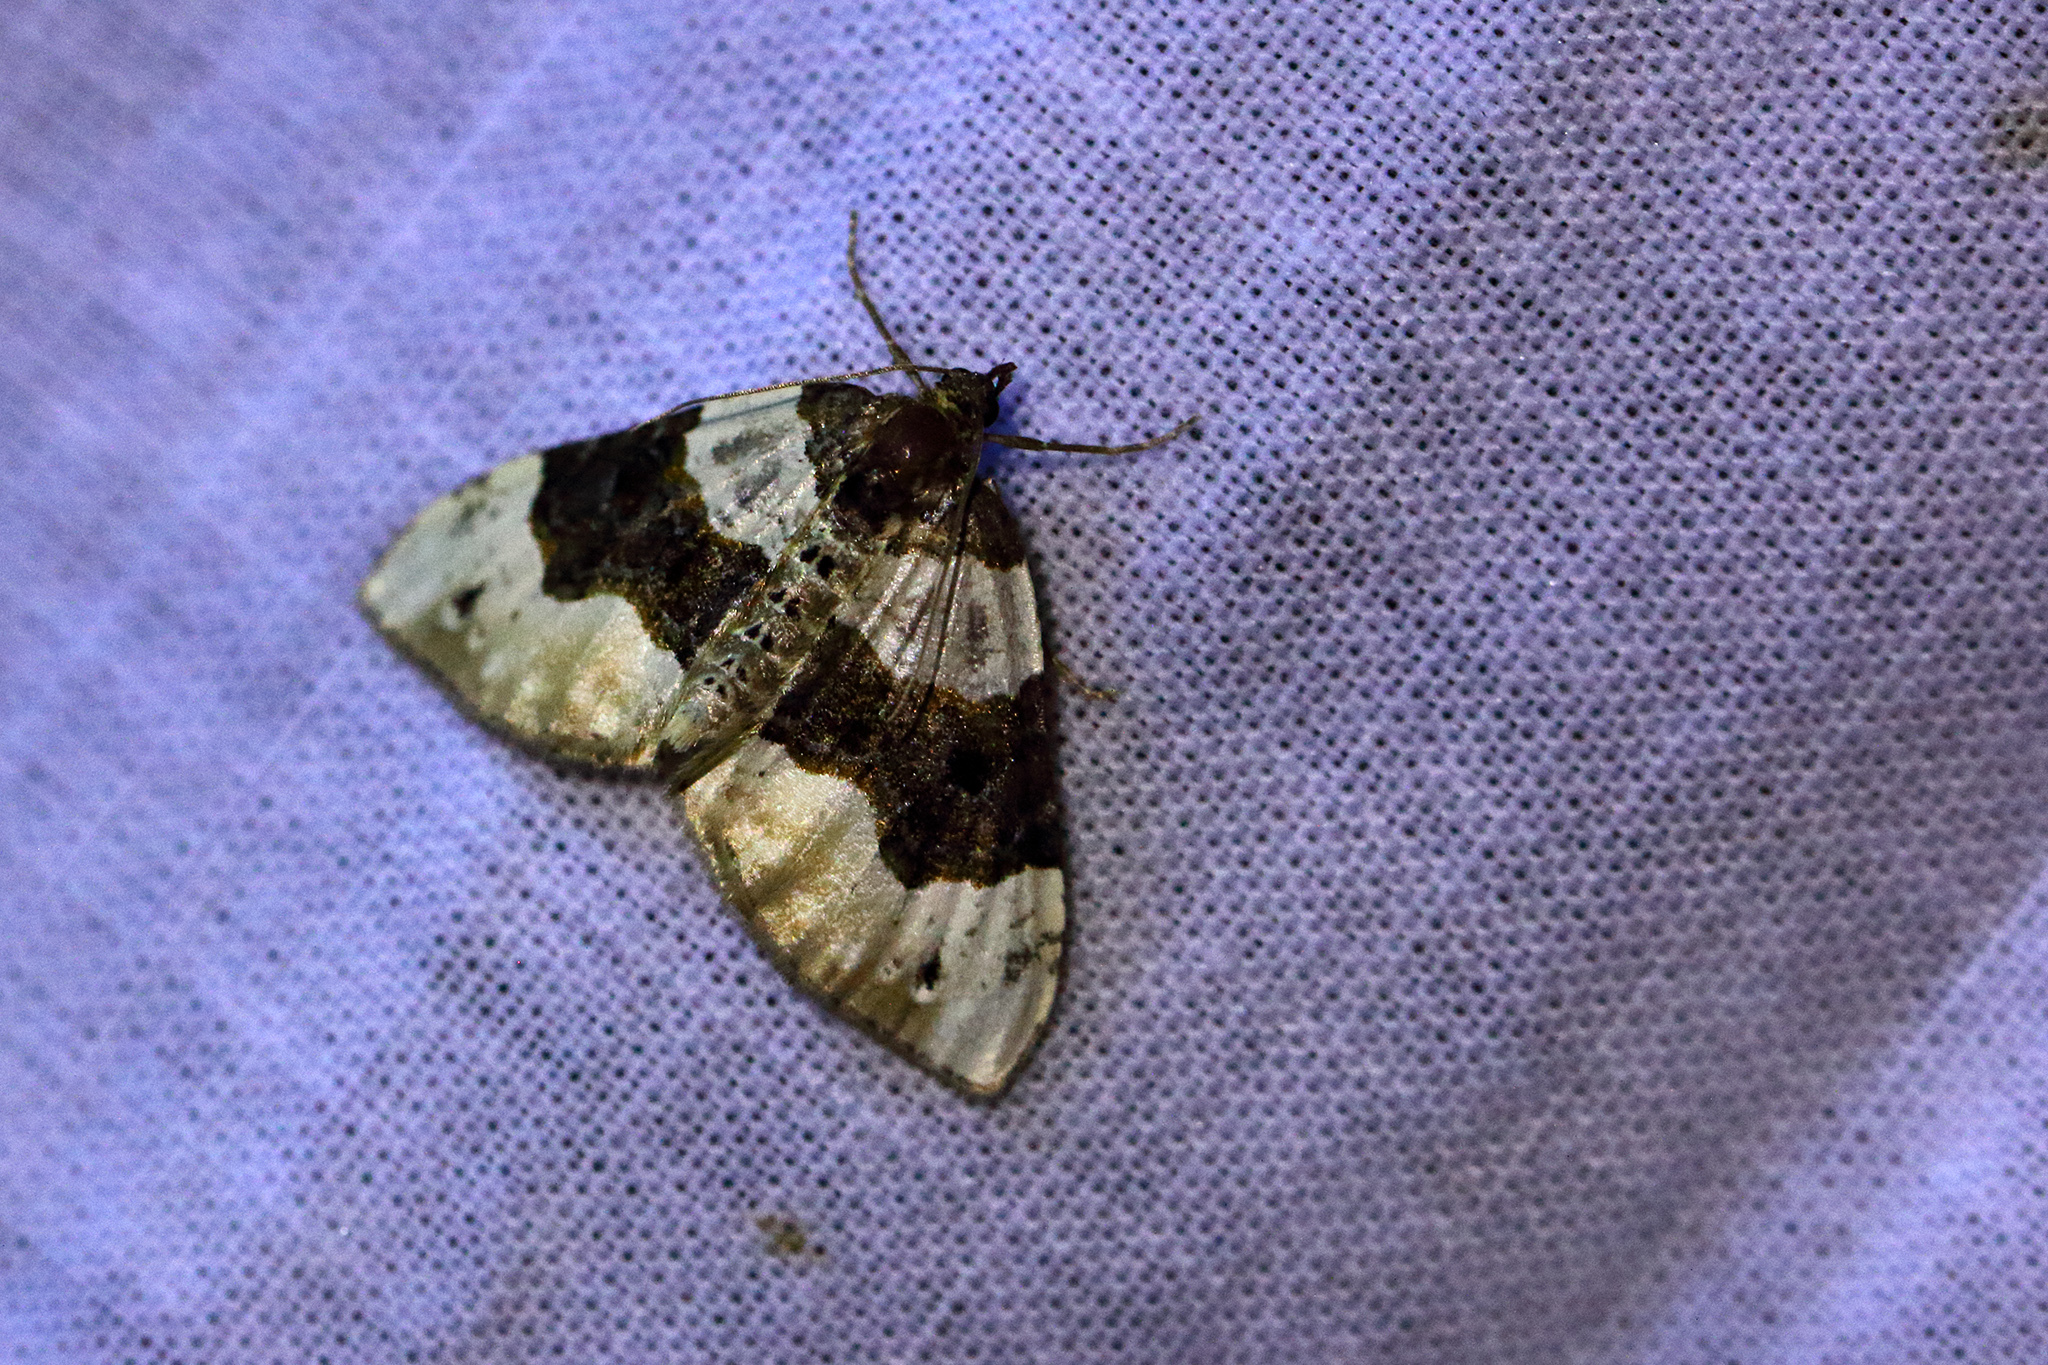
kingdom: Animalia
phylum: Arthropoda
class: Insecta
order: Lepidoptera
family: Geometridae
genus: Cosmorhoe
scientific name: Cosmorhoe ocellata
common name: Purple bar
